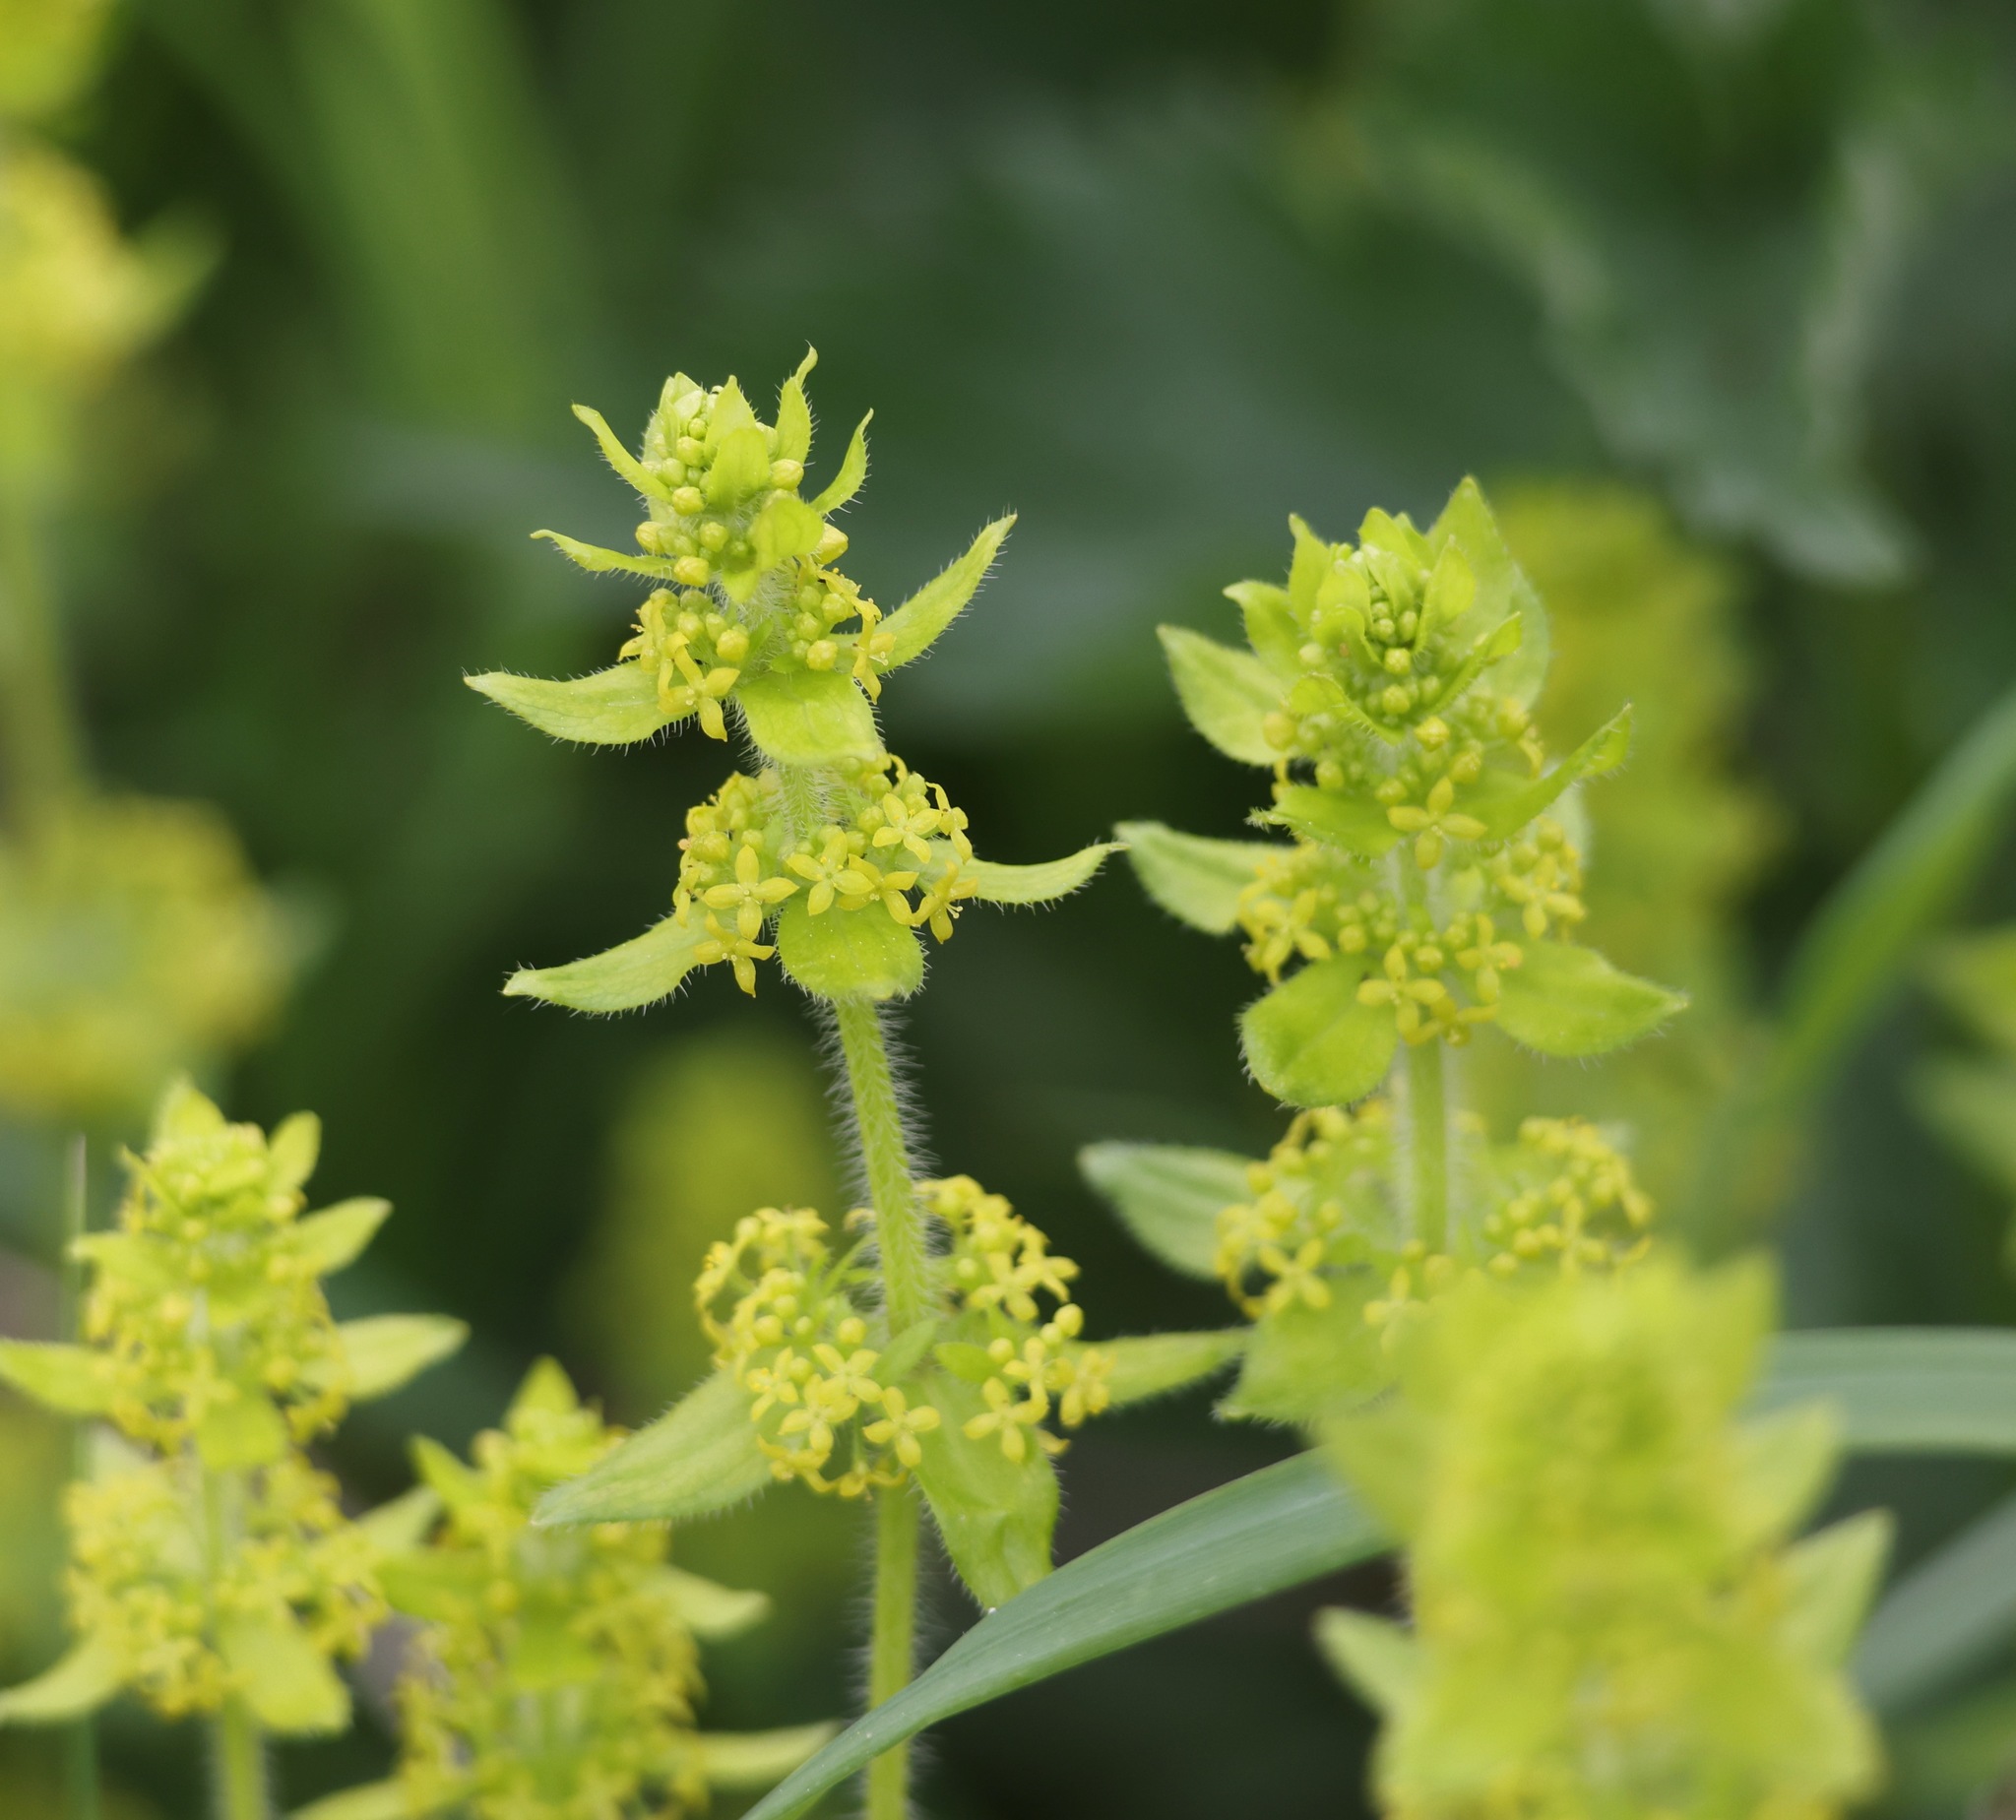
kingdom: Plantae
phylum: Tracheophyta
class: Magnoliopsida
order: Gentianales
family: Rubiaceae
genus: Cruciata
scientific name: Cruciata laevipes
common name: Crosswort
